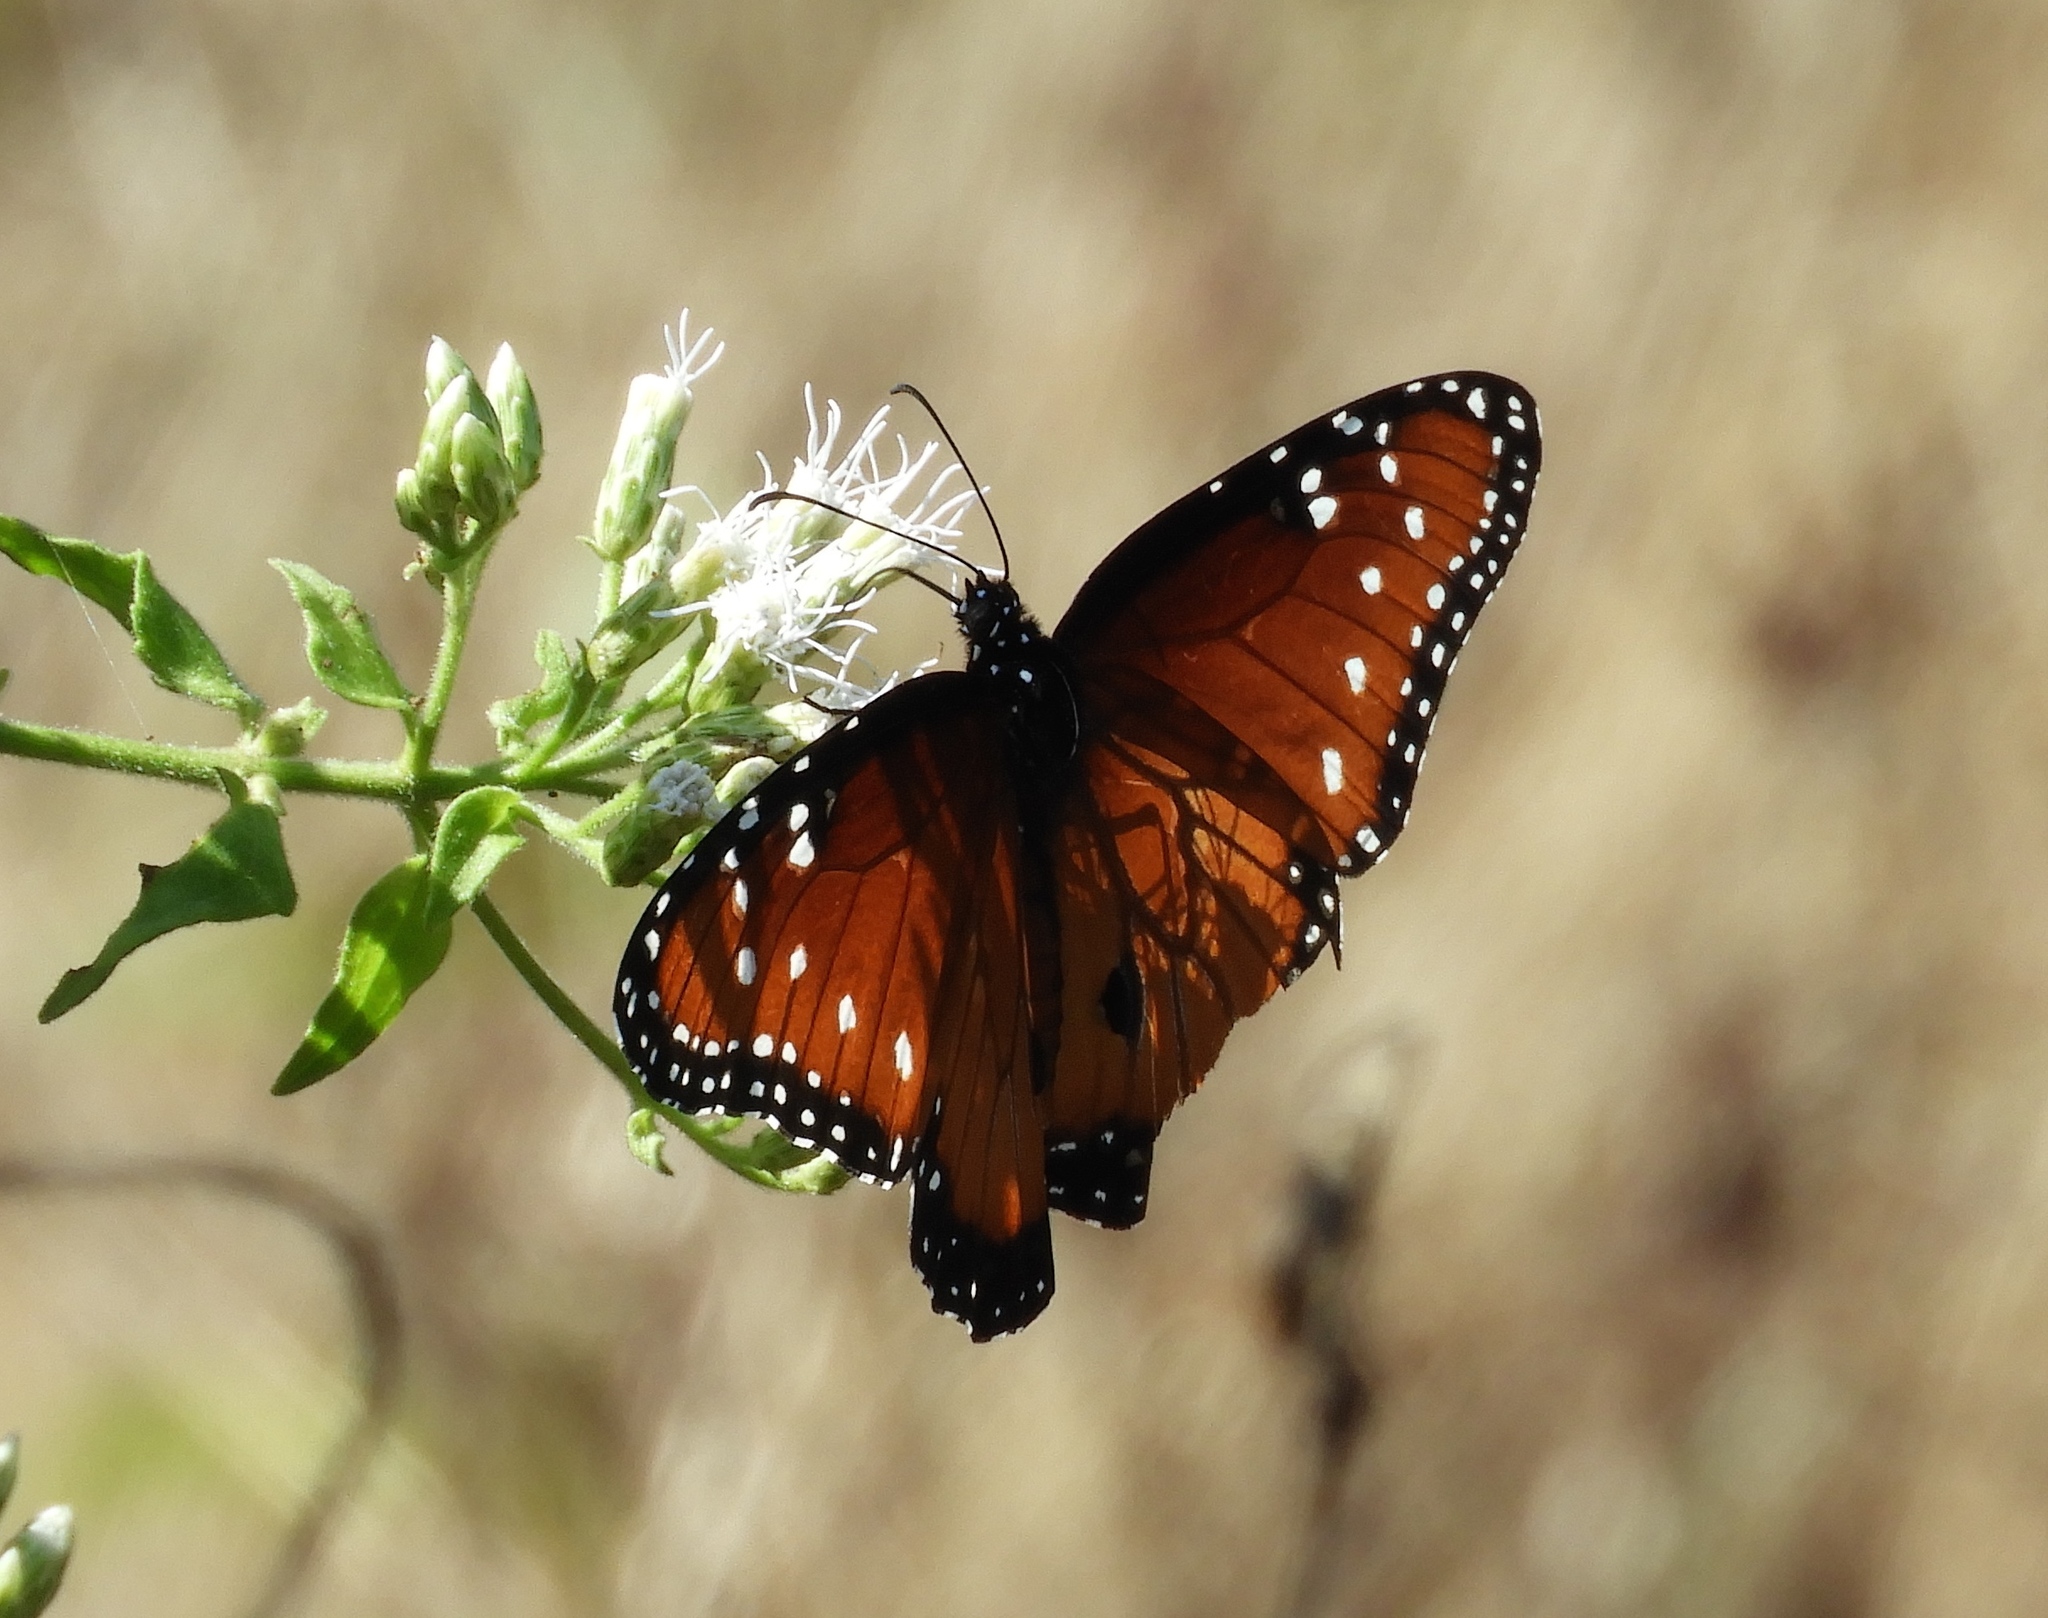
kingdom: Animalia
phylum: Arthropoda
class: Insecta
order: Lepidoptera
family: Nymphalidae
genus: Danaus
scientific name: Danaus gilippus
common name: Queen
